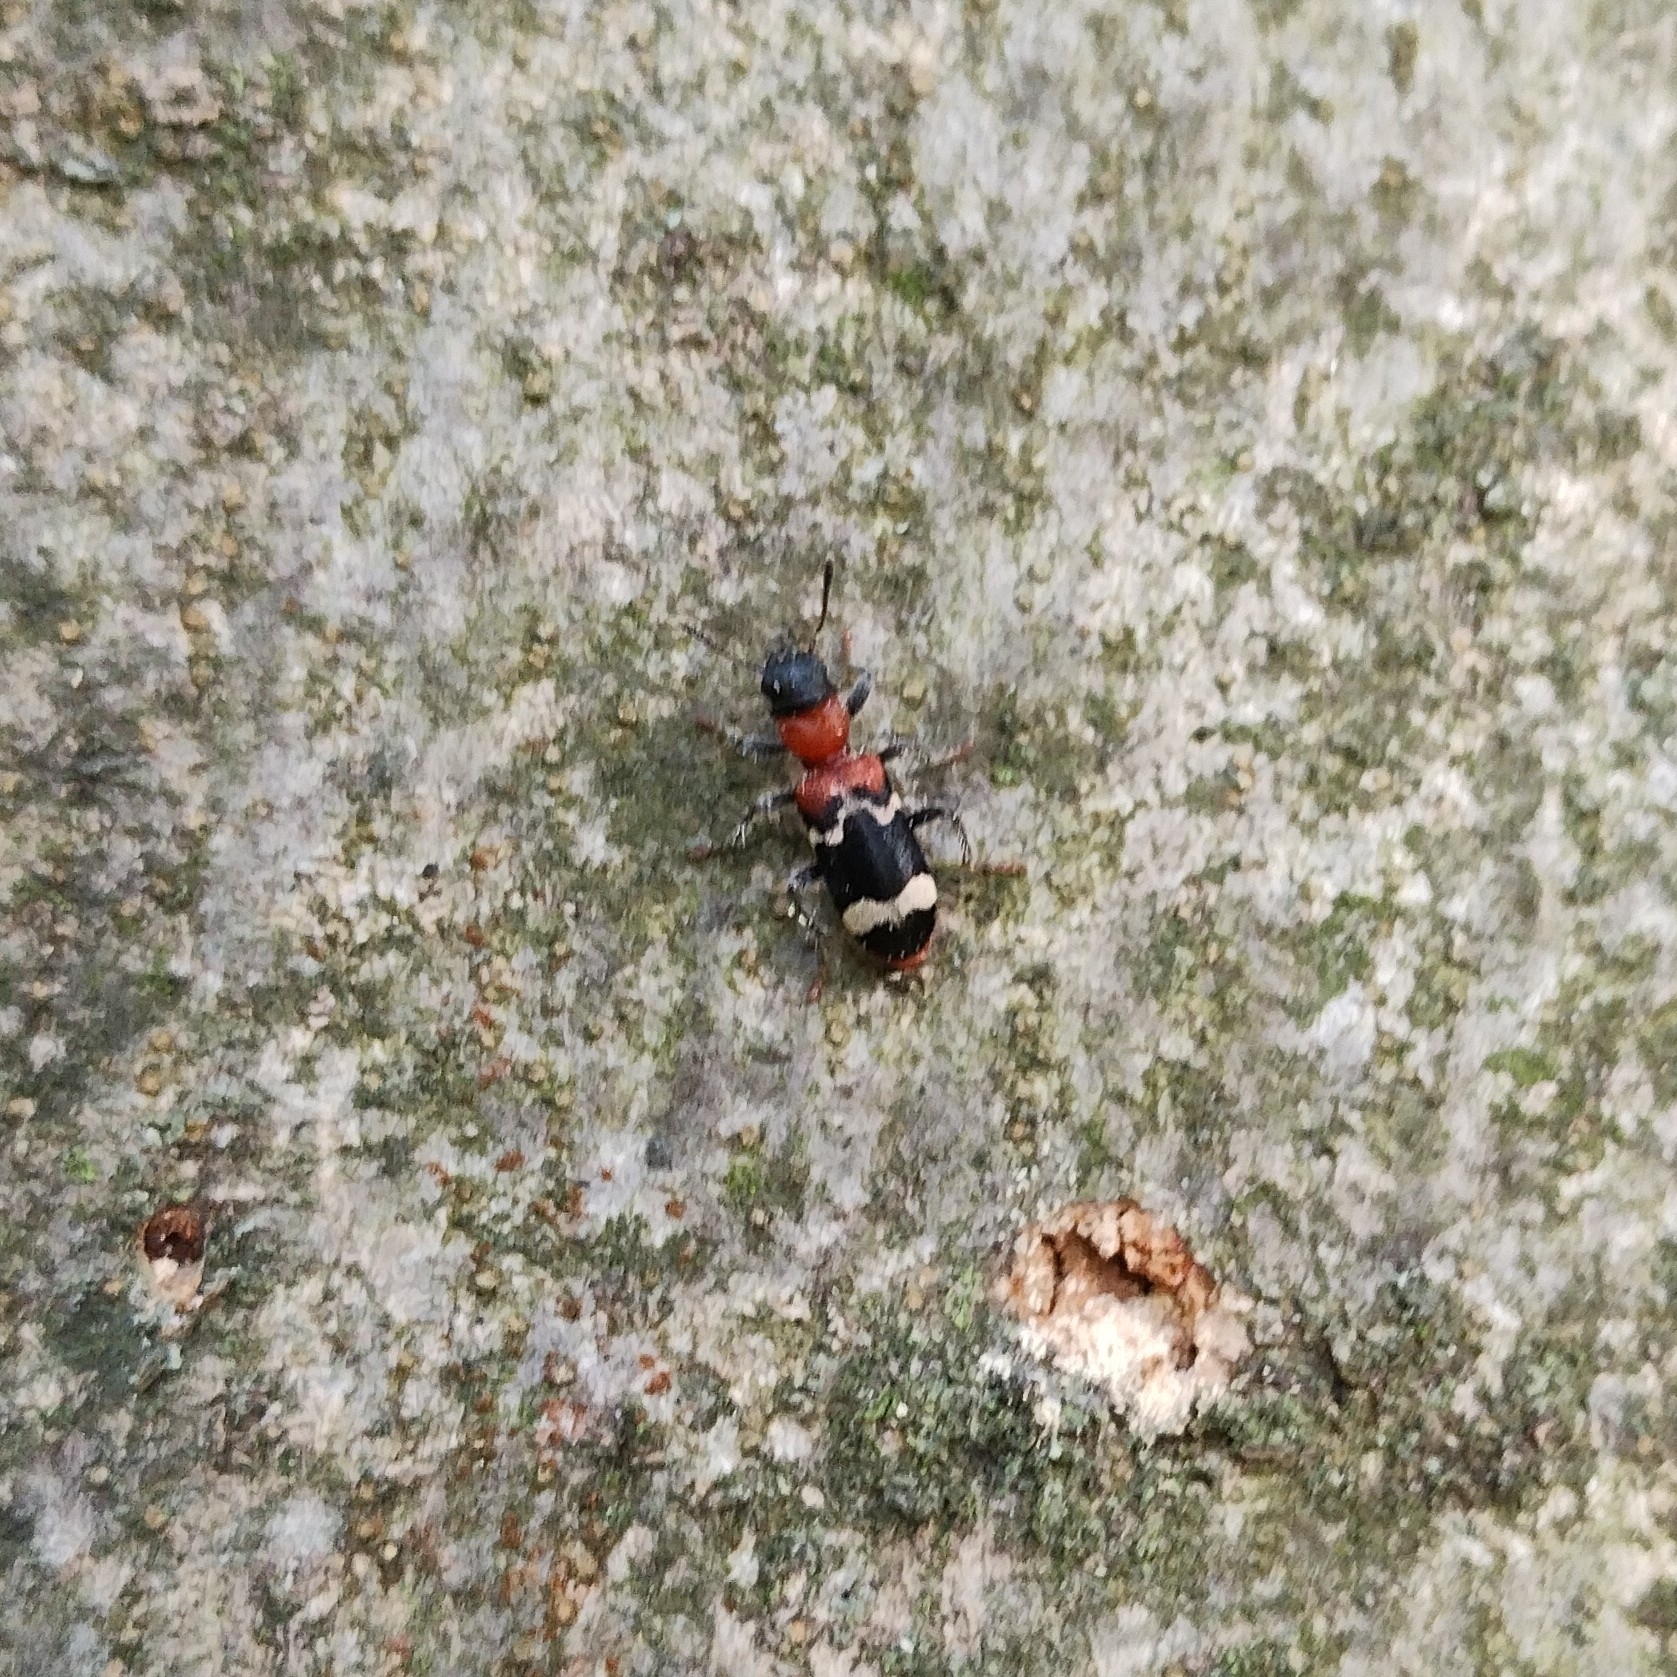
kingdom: Animalia
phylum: Arthropoda
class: Insecta
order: Coleoptera
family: Cleridae
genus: Thanasimus
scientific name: Thanasimus formicarius
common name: Ant beetle
